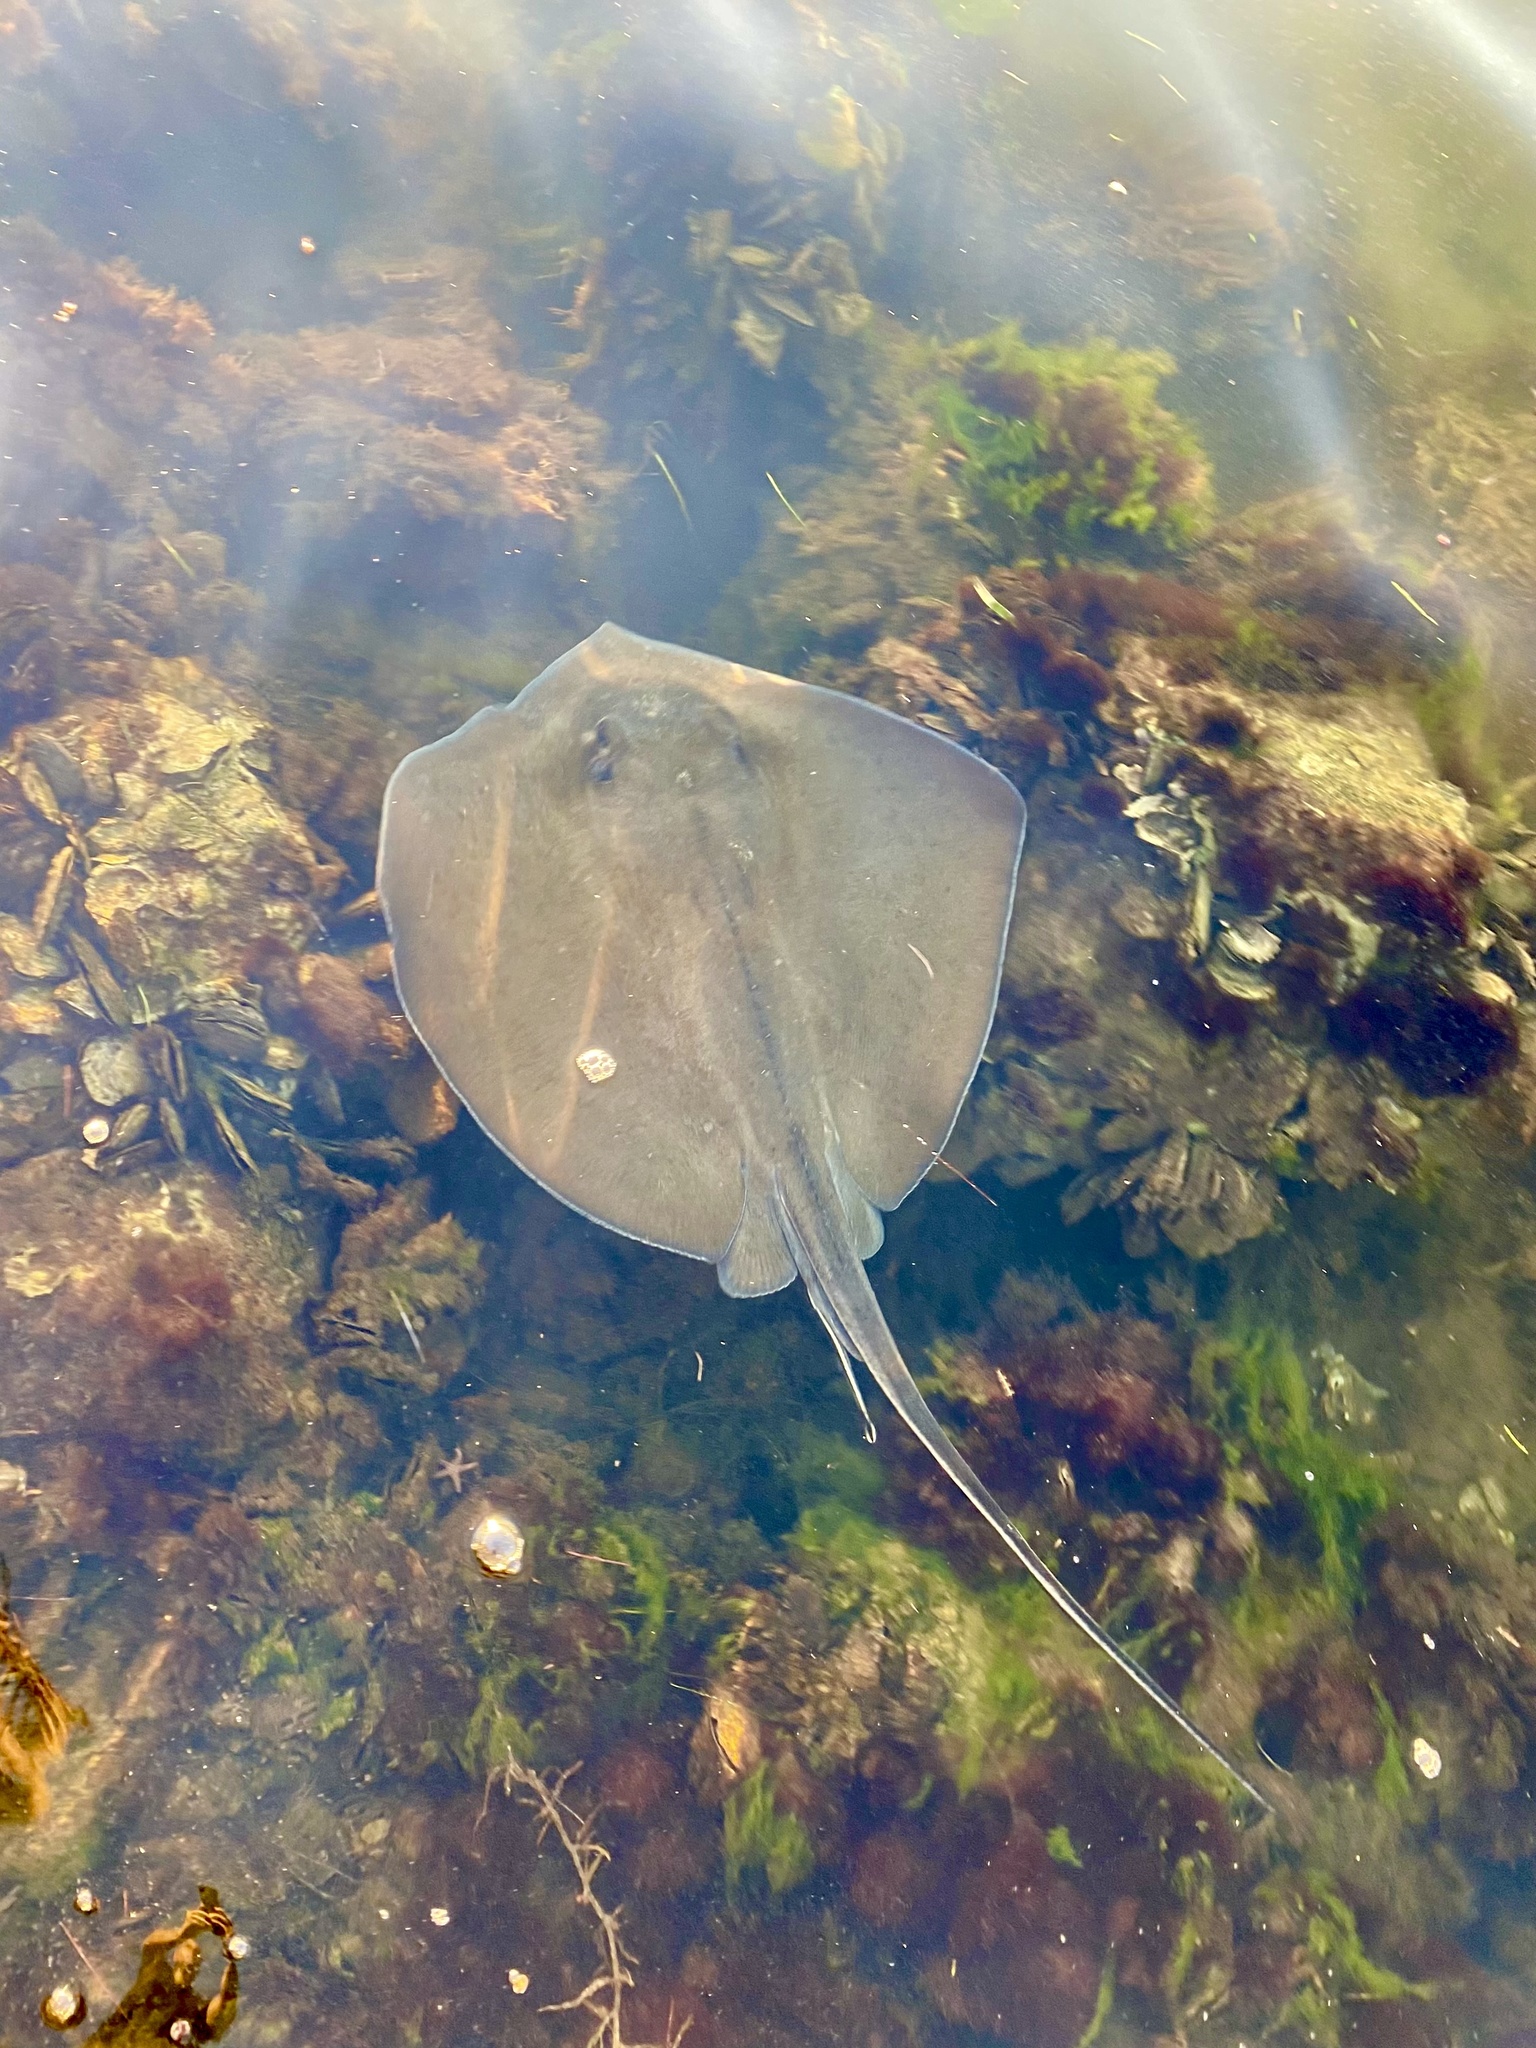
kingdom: Animalia
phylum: Chordata
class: Elasmobranchii
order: Myliobatiformes
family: Dasyatidae
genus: Hypanus
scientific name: Hypanus americanus
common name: Southern stingray
